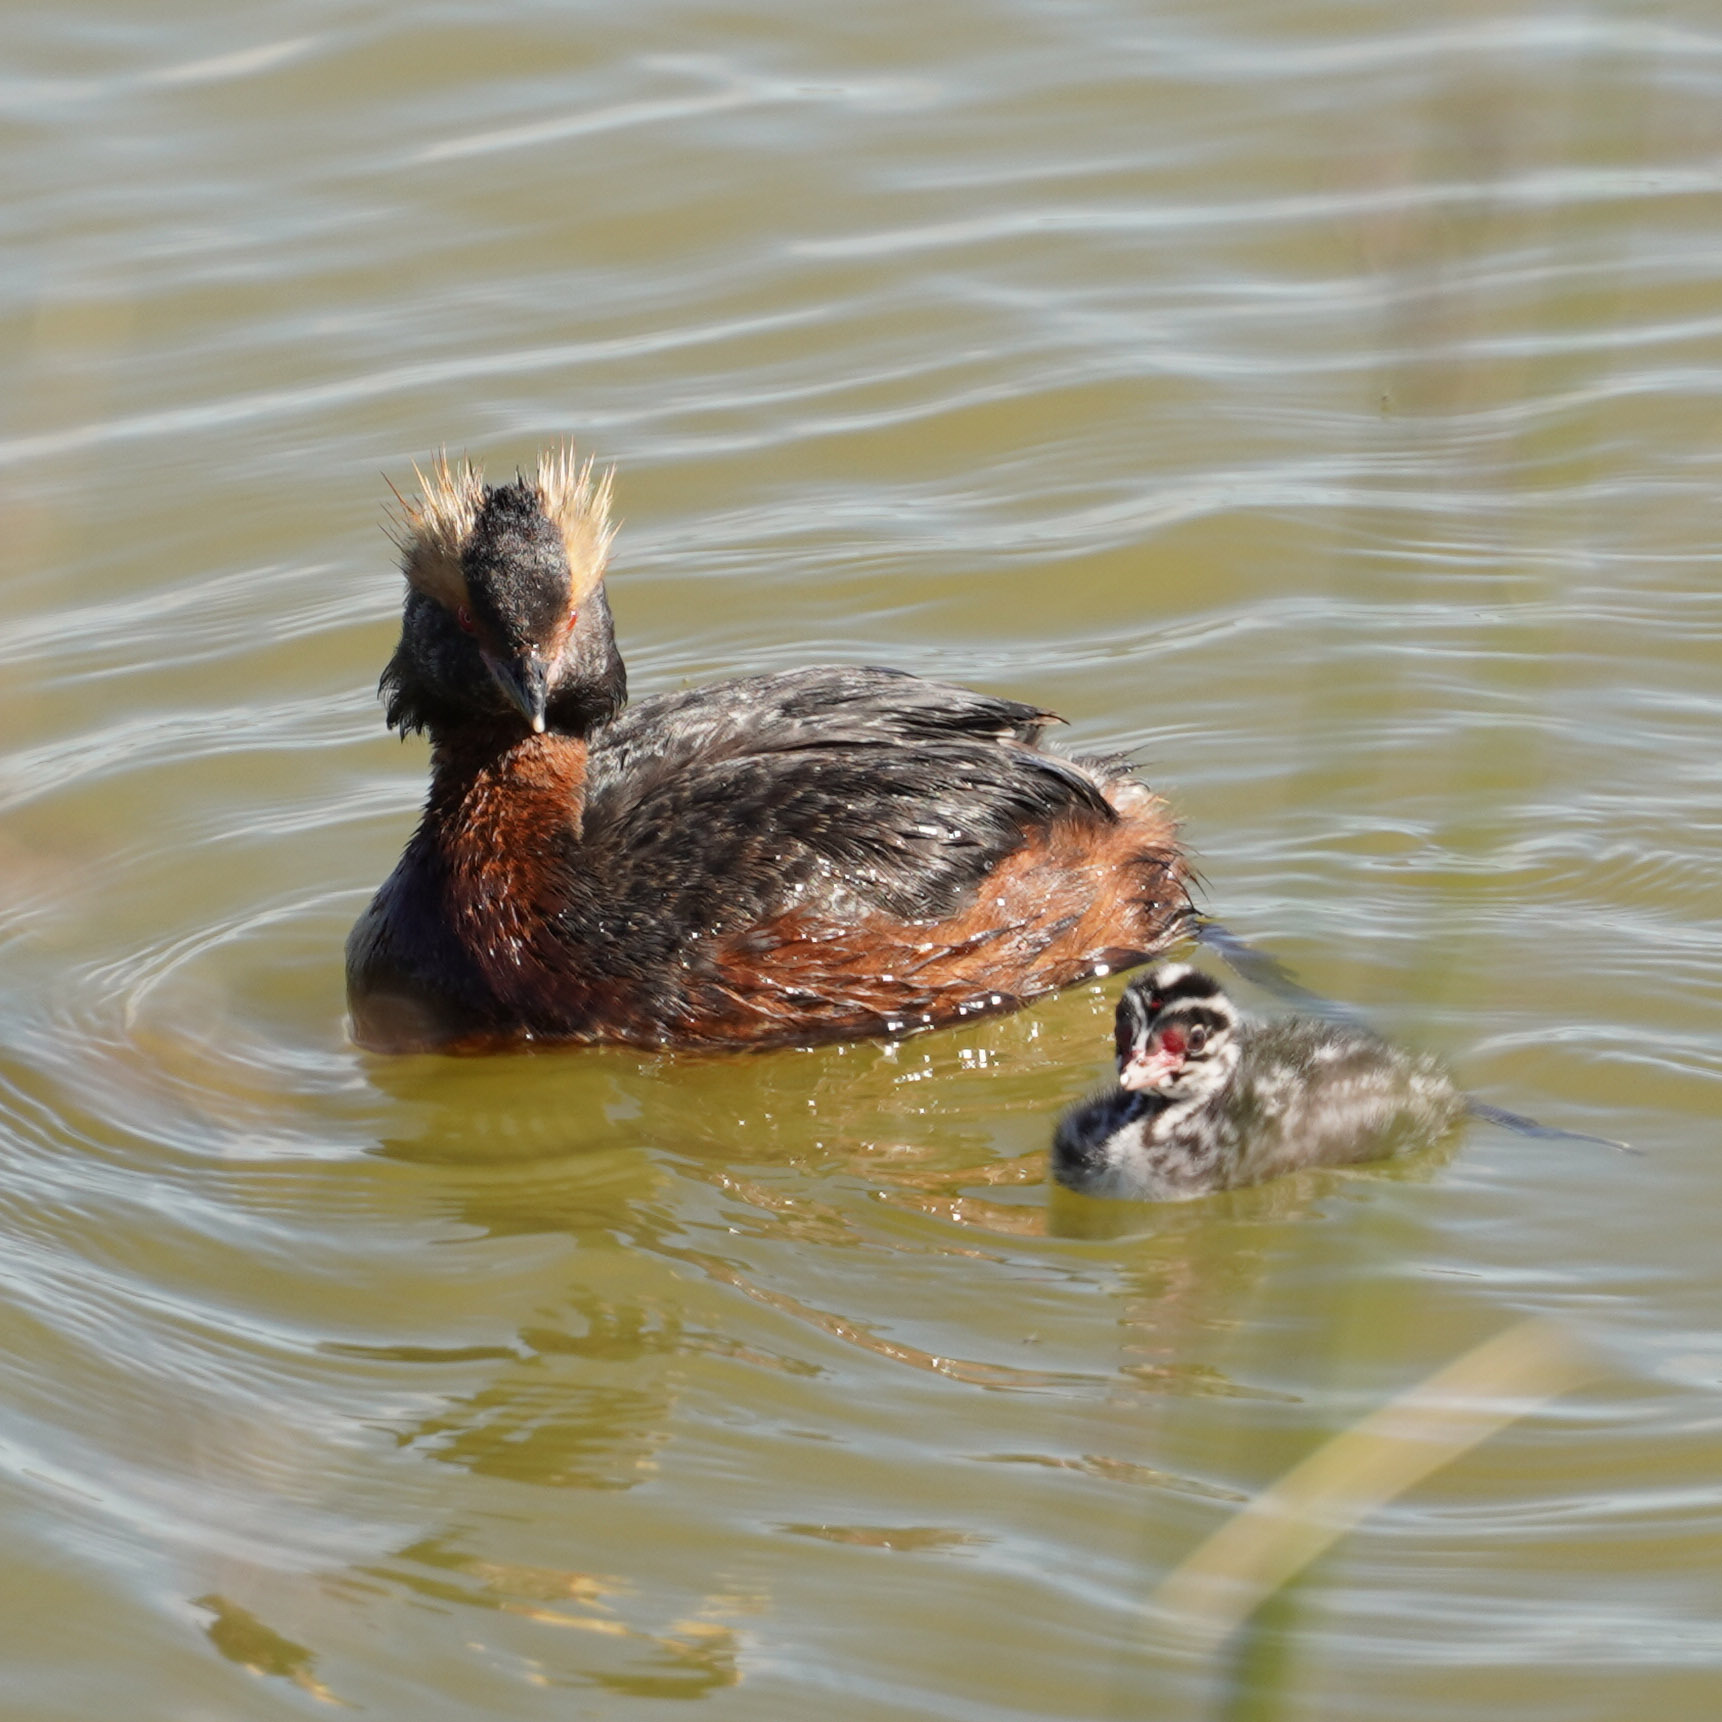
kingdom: Animalia
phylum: Chordata
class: Aves
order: Podicipediformes
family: Podicipedidae
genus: Podiceps
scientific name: Podiceps auritus
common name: Horned grebe
